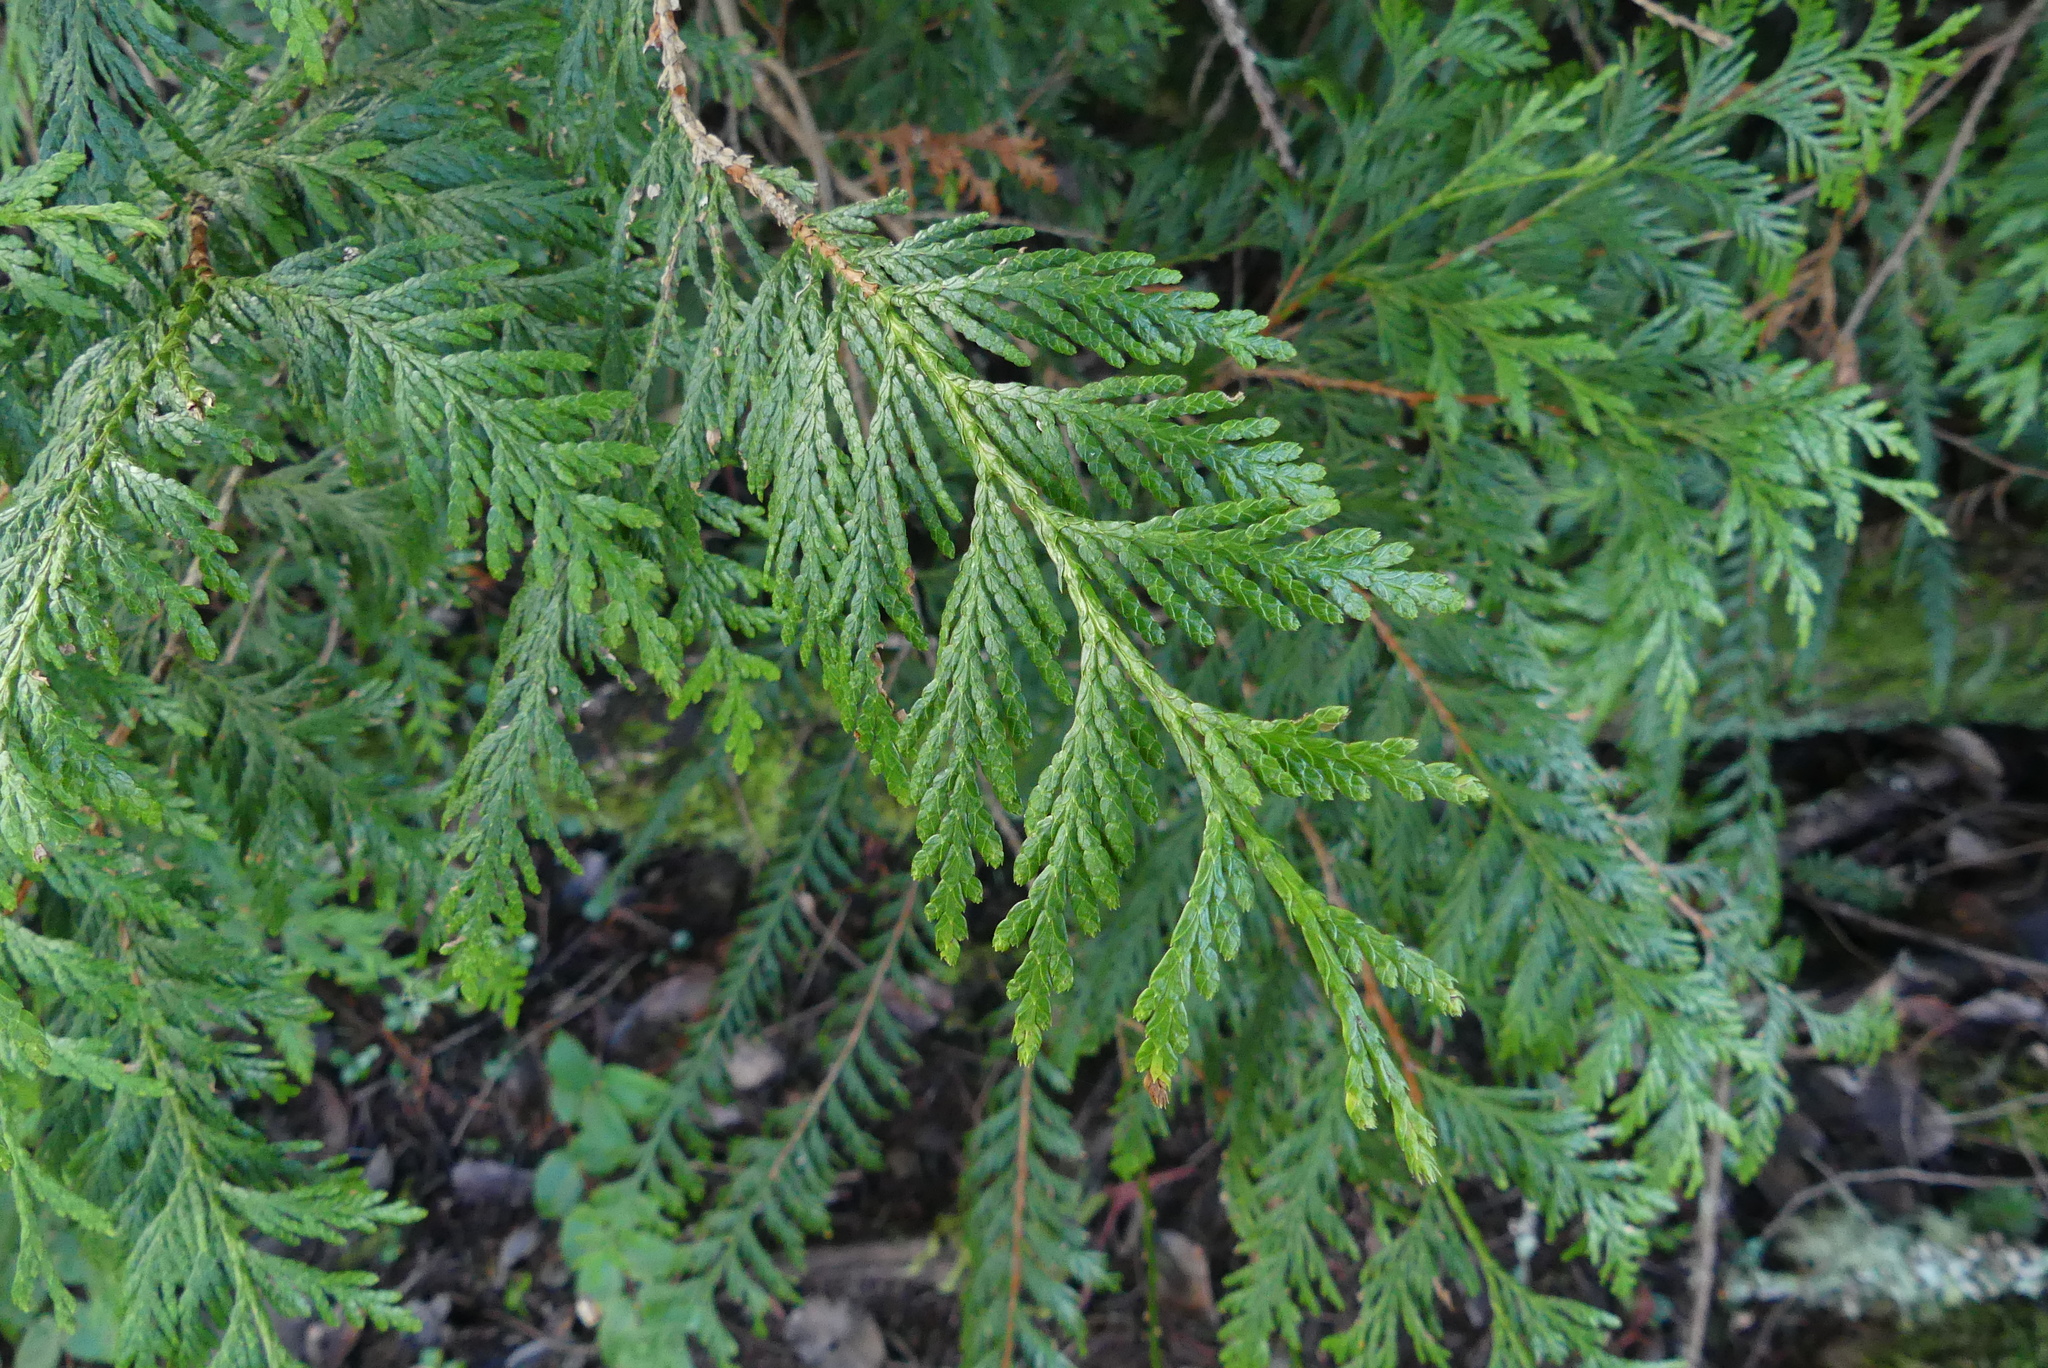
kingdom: Plantae
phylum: Tracheophyta
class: Pinopsida
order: Pinales
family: Cupressaceae
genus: Thuja
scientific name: Thuja plicata
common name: Western red-cedar
